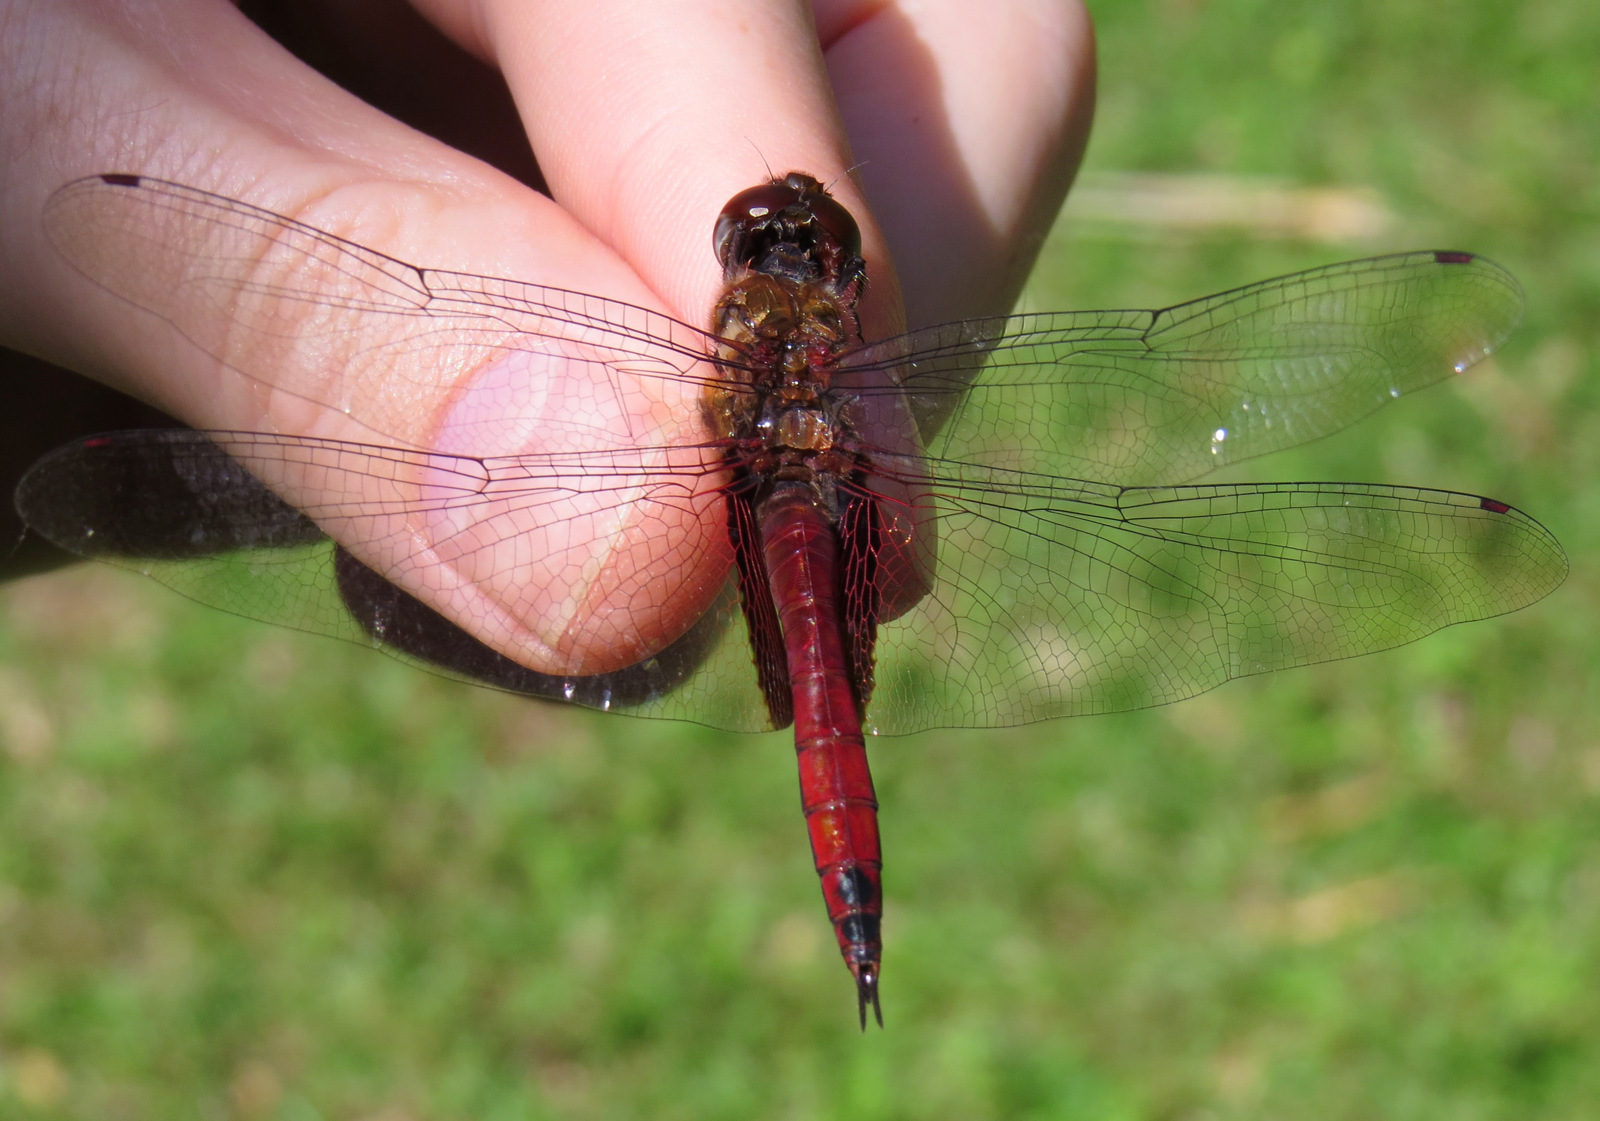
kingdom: Animalia
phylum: Arthropoda
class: Insecta
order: Odonata
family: Libellulidae
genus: Tramea
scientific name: Tramea abdominalis
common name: Vermilion saddlebags
